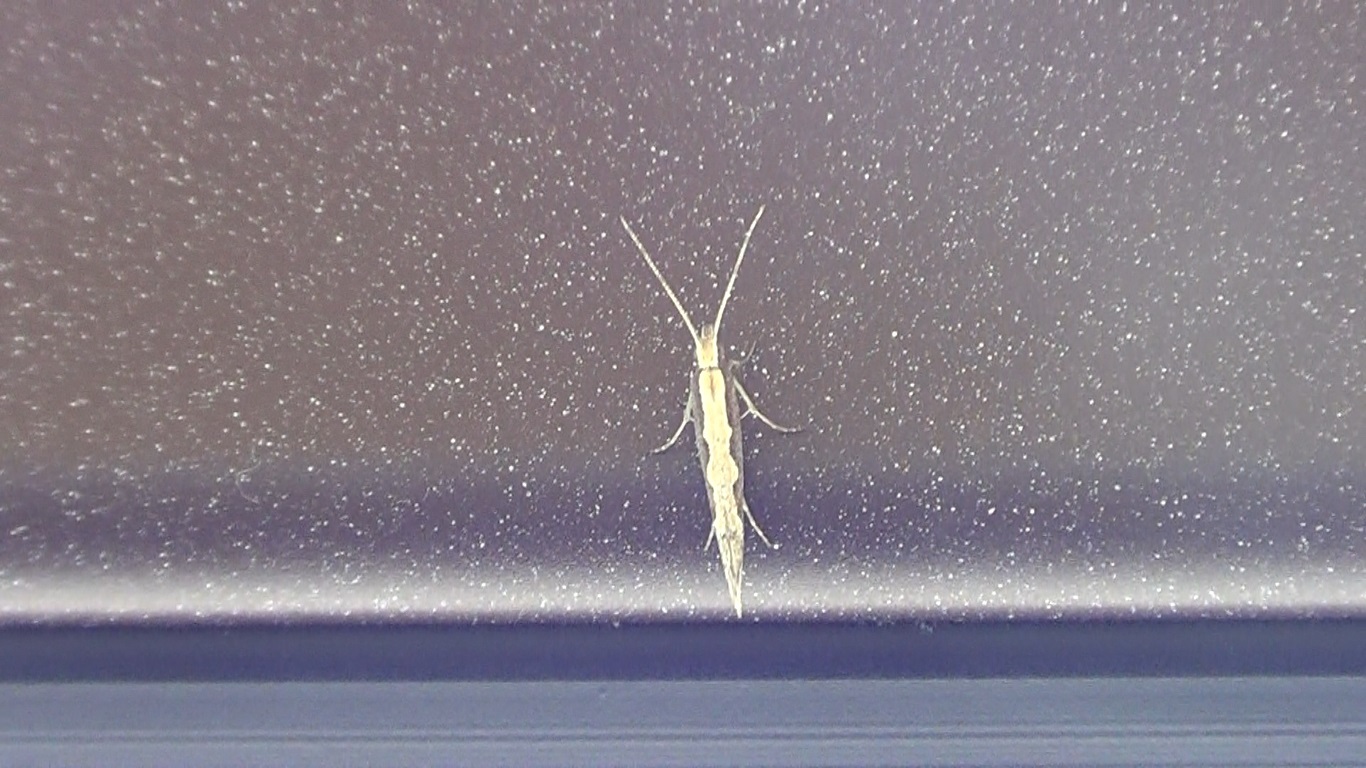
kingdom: Animalia
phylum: Arthropoda
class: Insecta
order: Lepidoptera
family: Plutellidae
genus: Plutella
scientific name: Plutella xylostella
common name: Diamond-back moth
